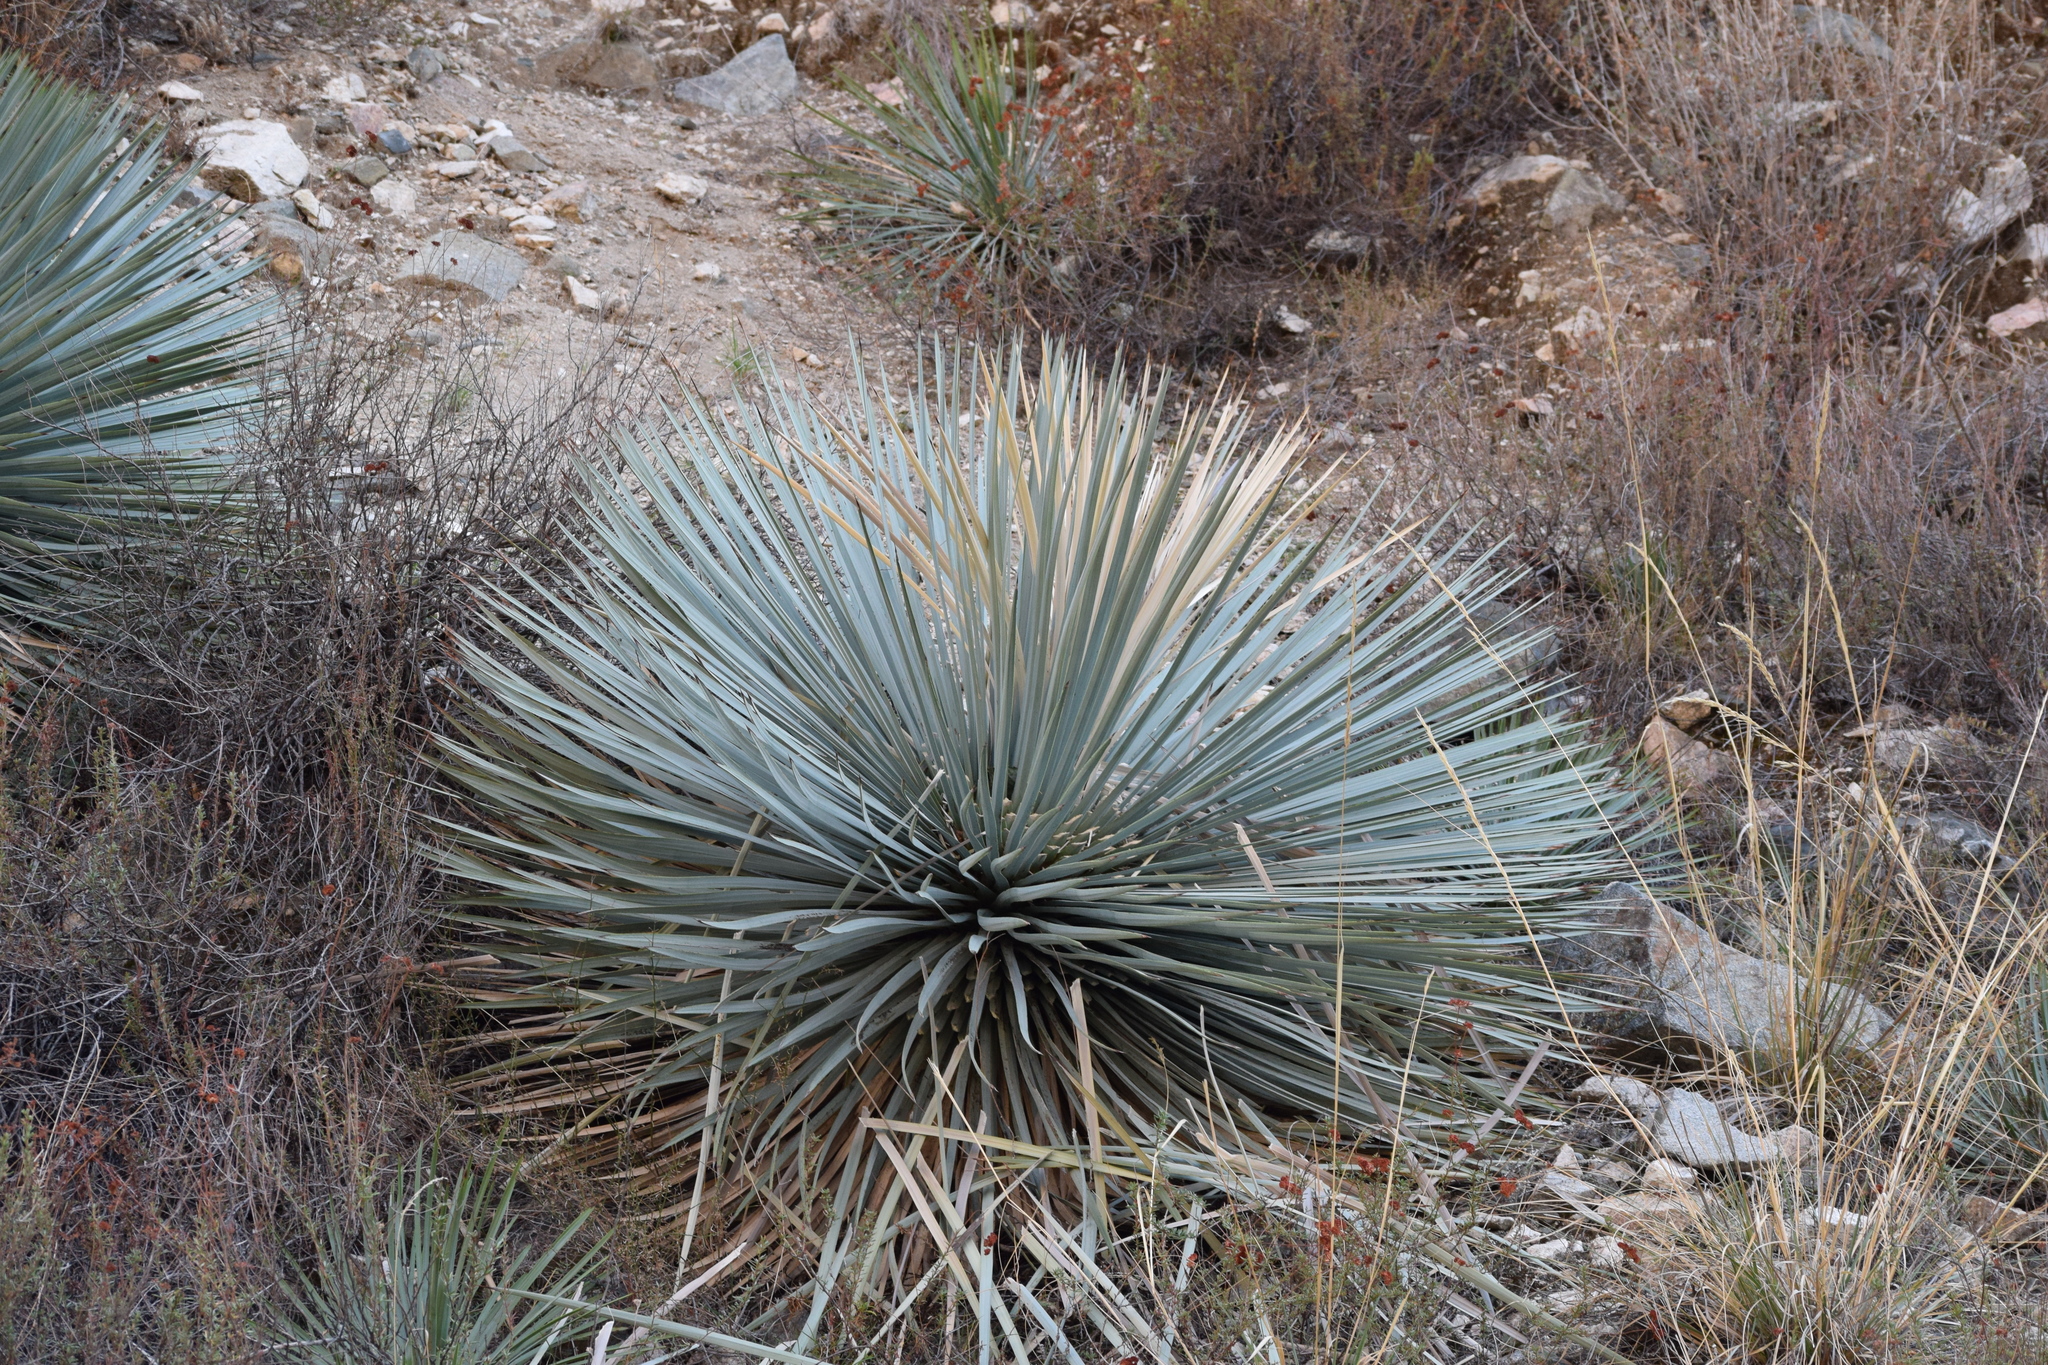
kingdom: Plantae
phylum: Tracheophyta
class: Liliopsida
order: Asparagales
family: Asparagaceae
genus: Hesperoyucca
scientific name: Hesperoyucca whipplei
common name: Our lord's-candle
